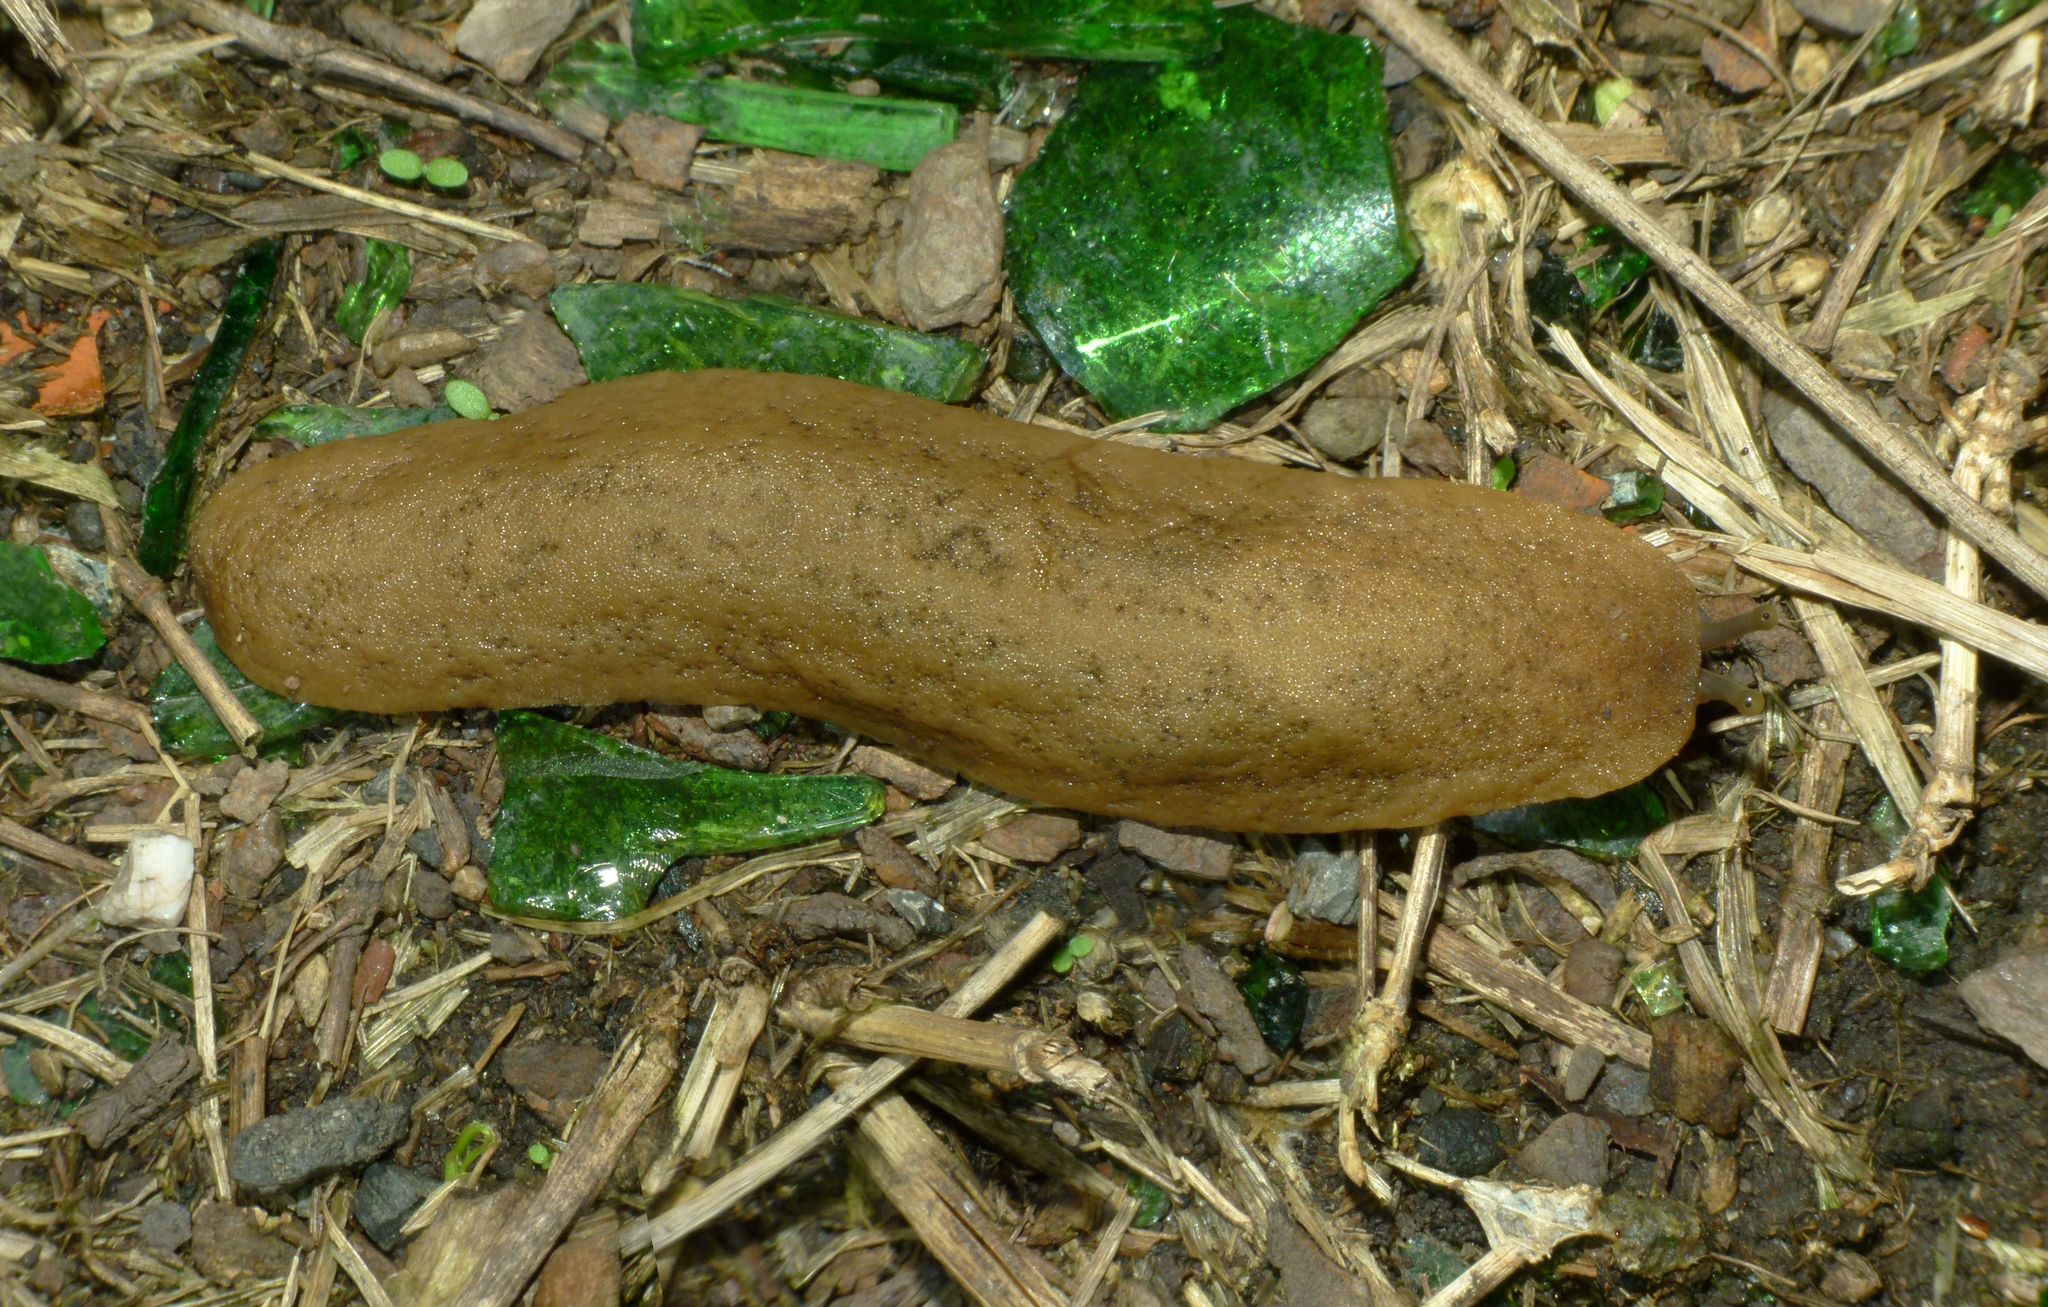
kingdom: Animalia
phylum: Mollusca
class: Gastropoda
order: Systellommatophora
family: Veronicellidae
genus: Sarasinula
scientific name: Sarasinula plebeia
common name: Caribbean leatherleaf
